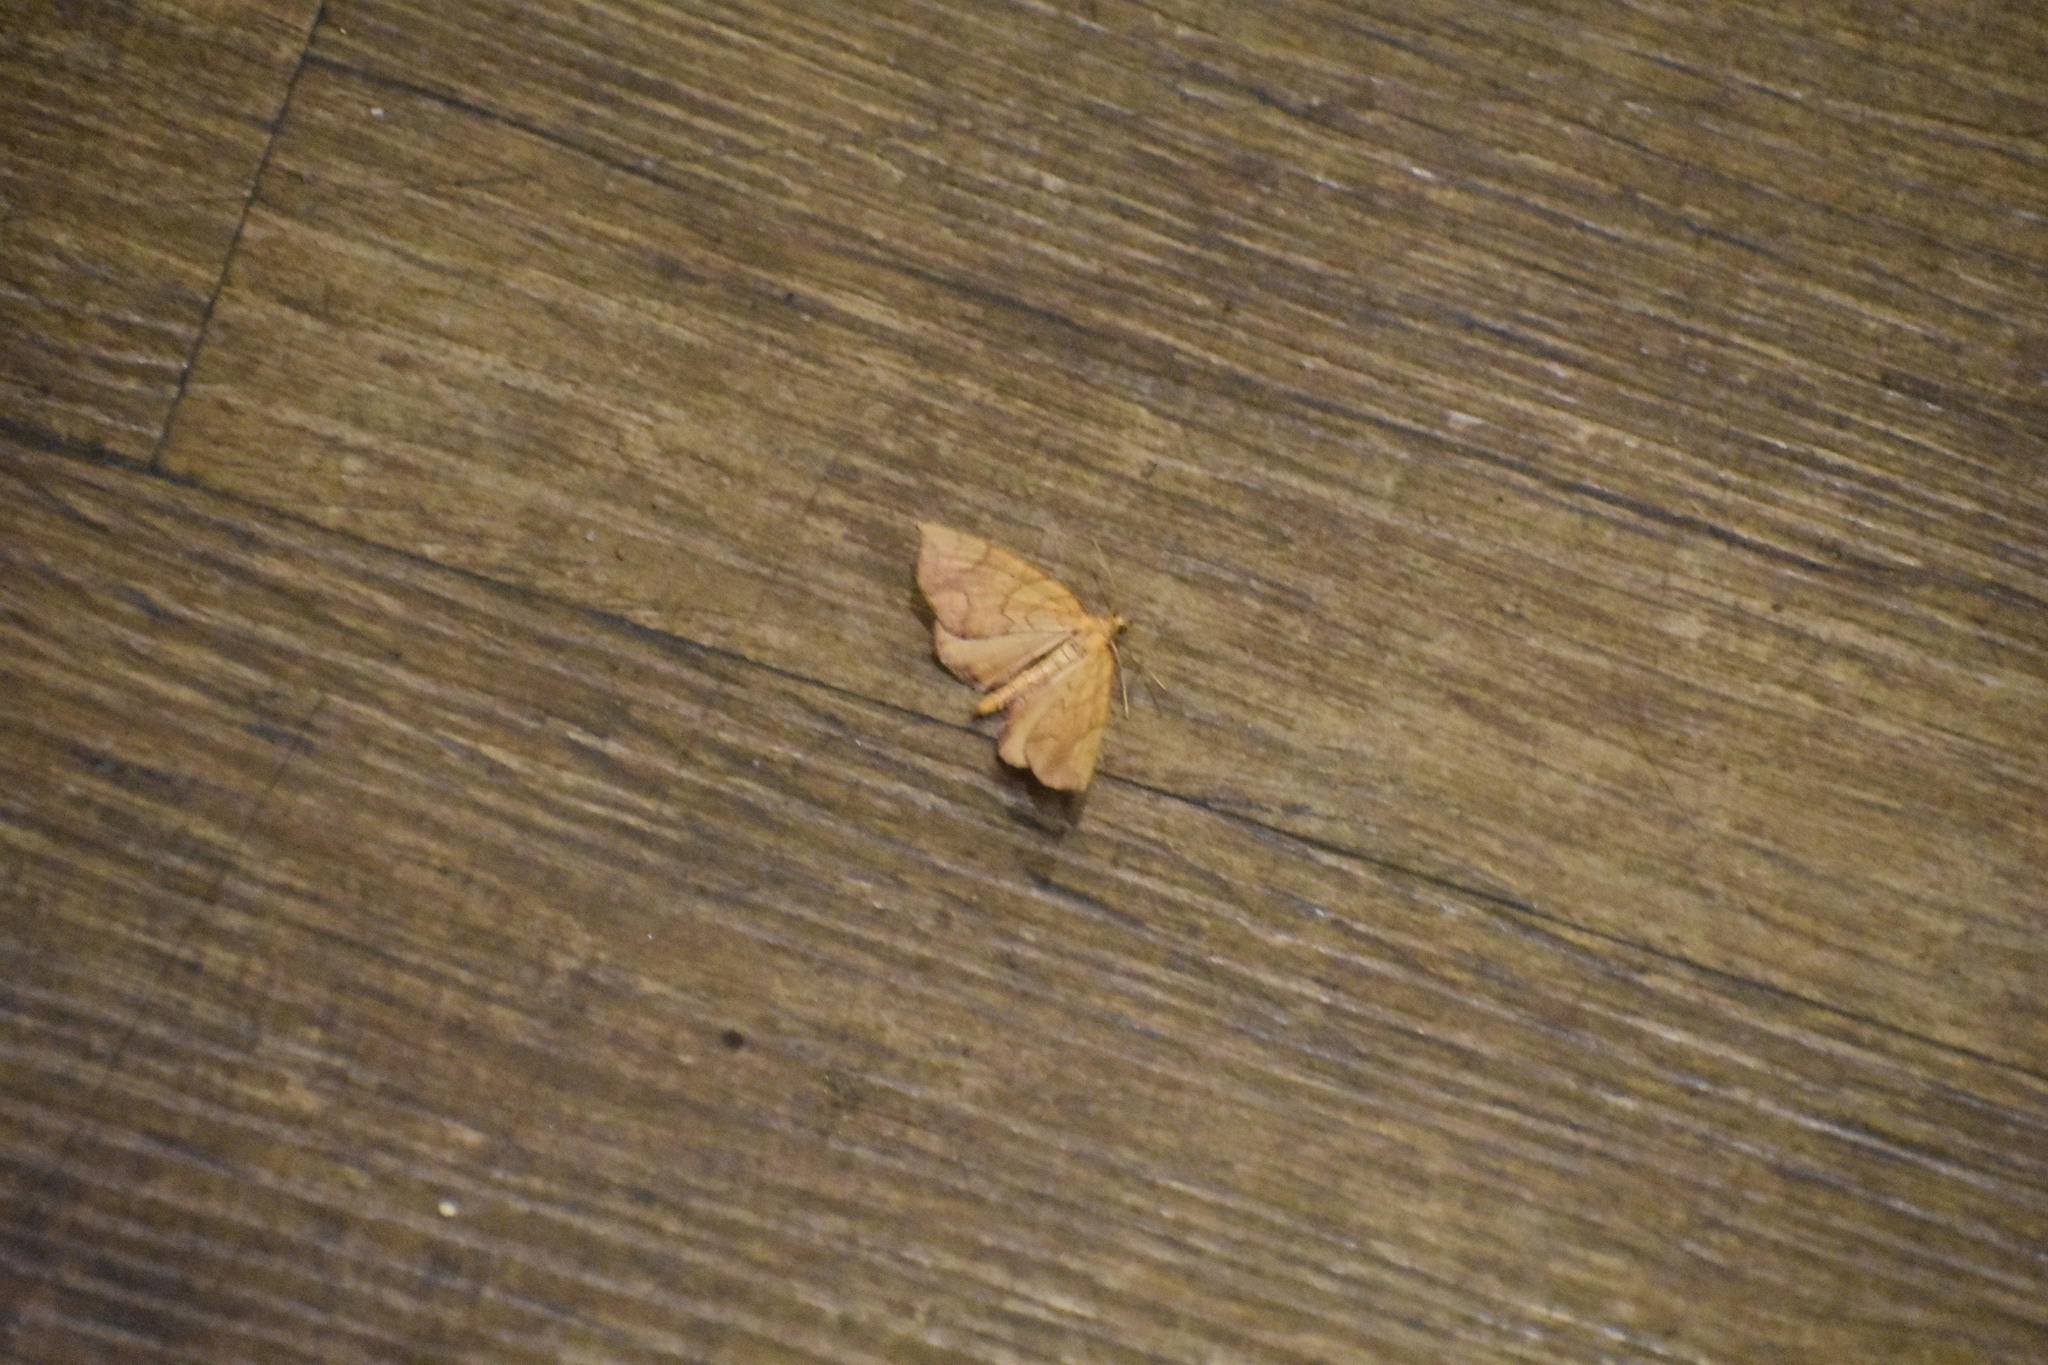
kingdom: Animalia
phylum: Arthropoda
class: Insecta
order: Lepidoptera
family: Geometridae
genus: Eulithis
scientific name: Eulithis
